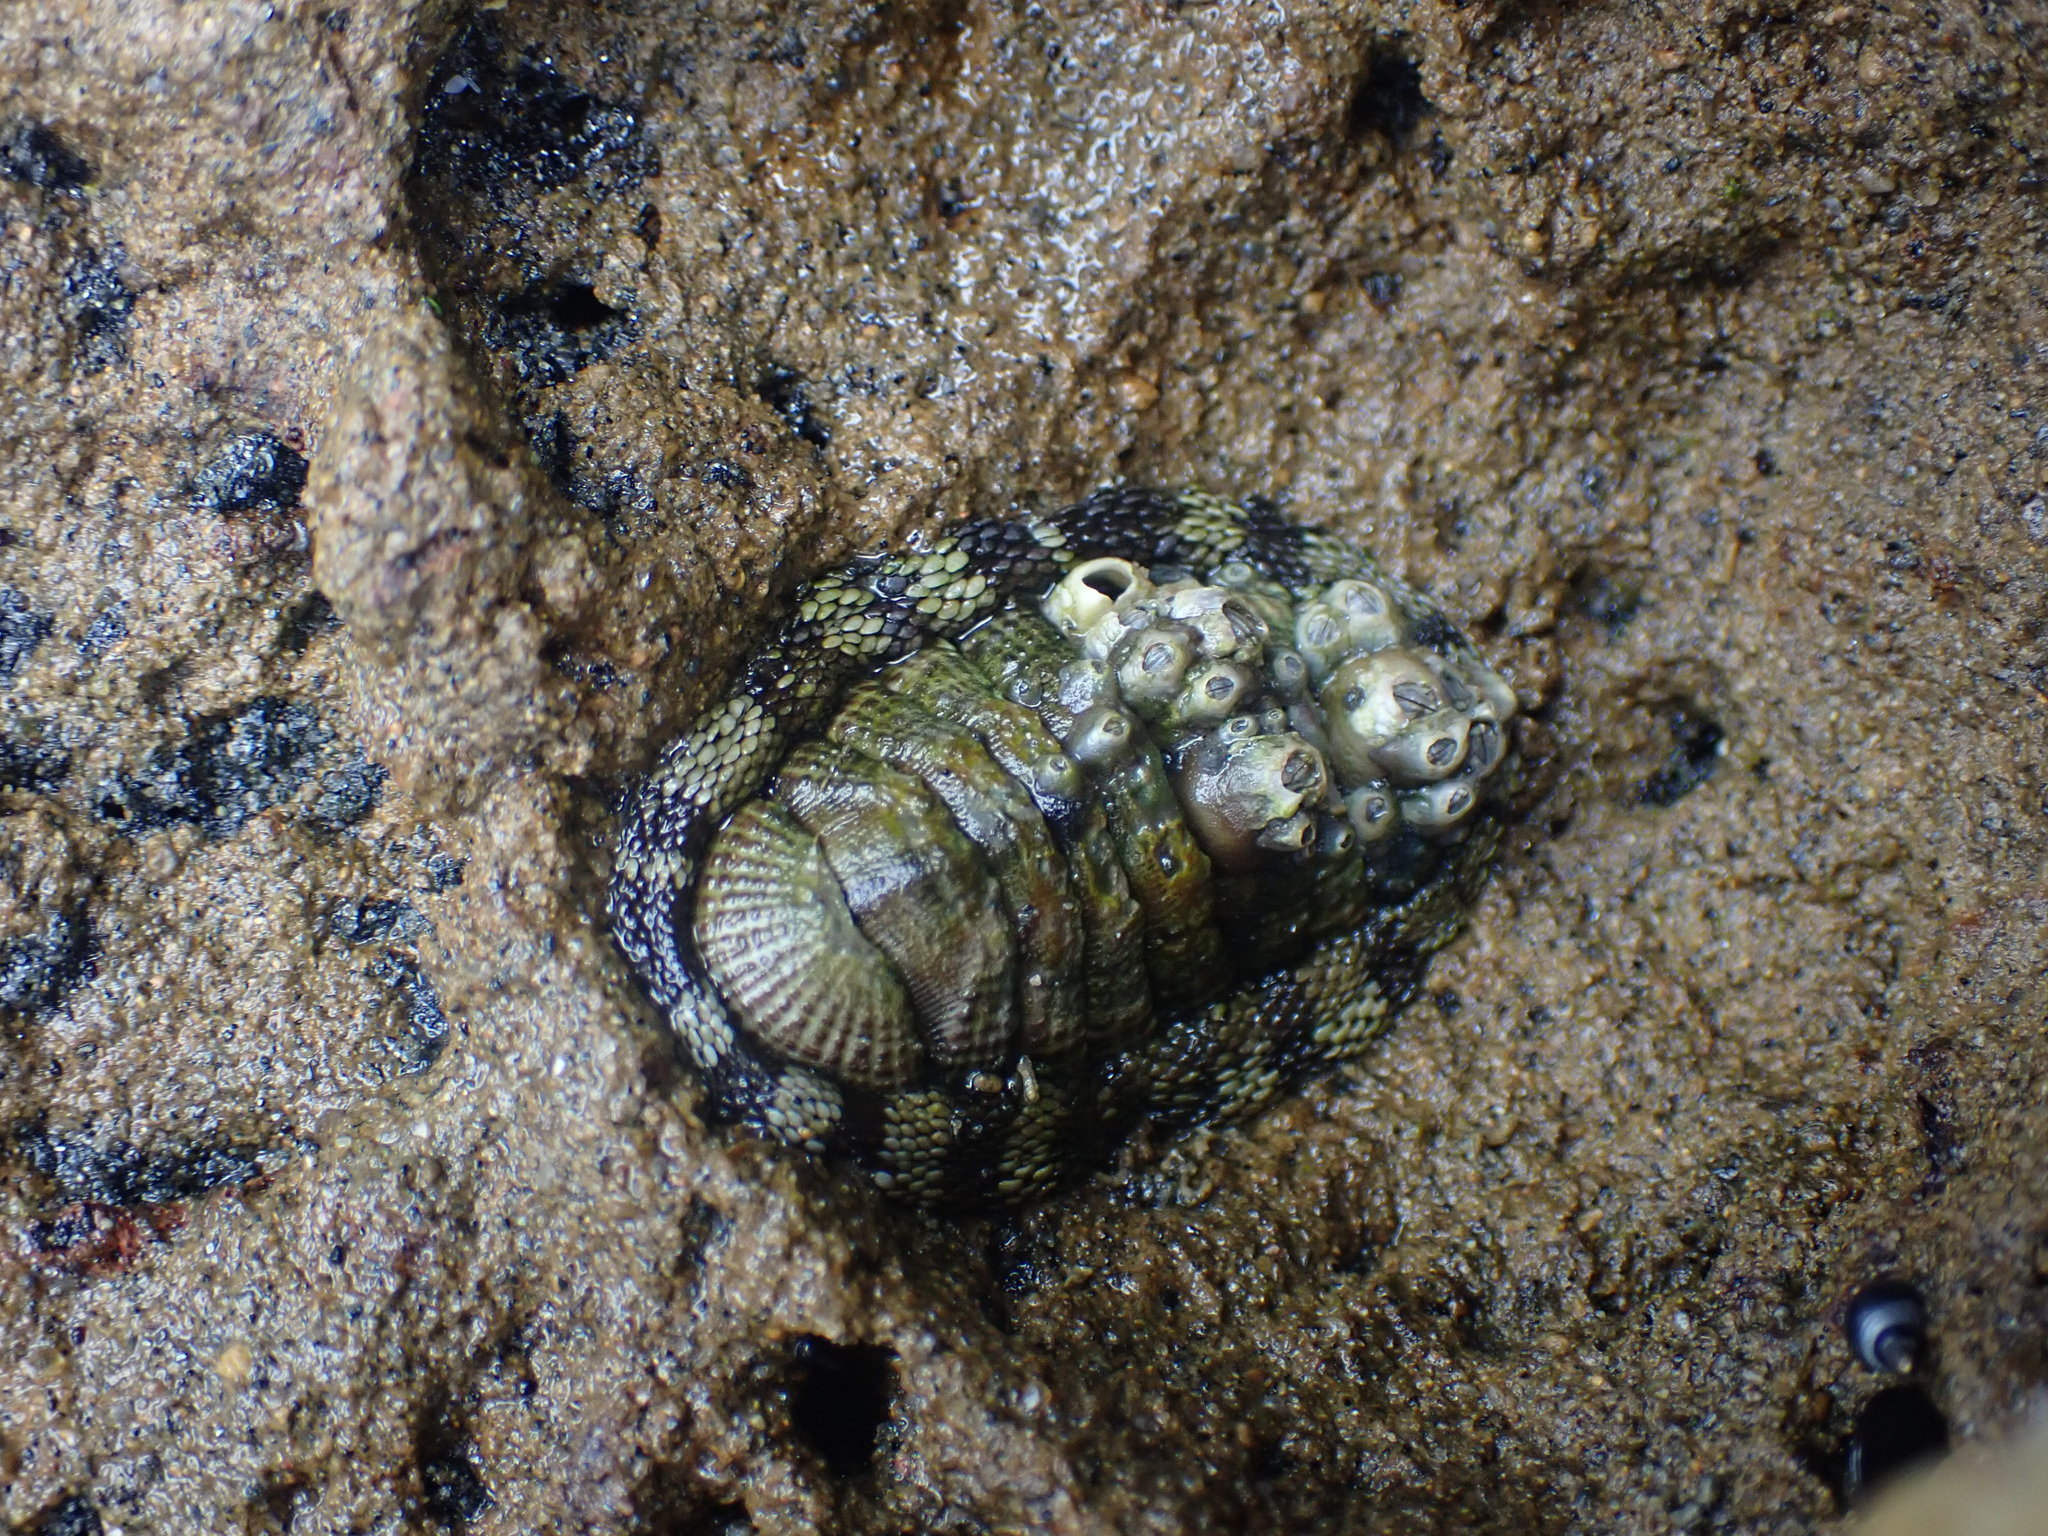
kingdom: Animalia
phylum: Mollusca
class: Polyplacophora
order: Chitonida
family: Chitonidae
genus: Sypharochiton
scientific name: Sypharochiton pelliserpentis
